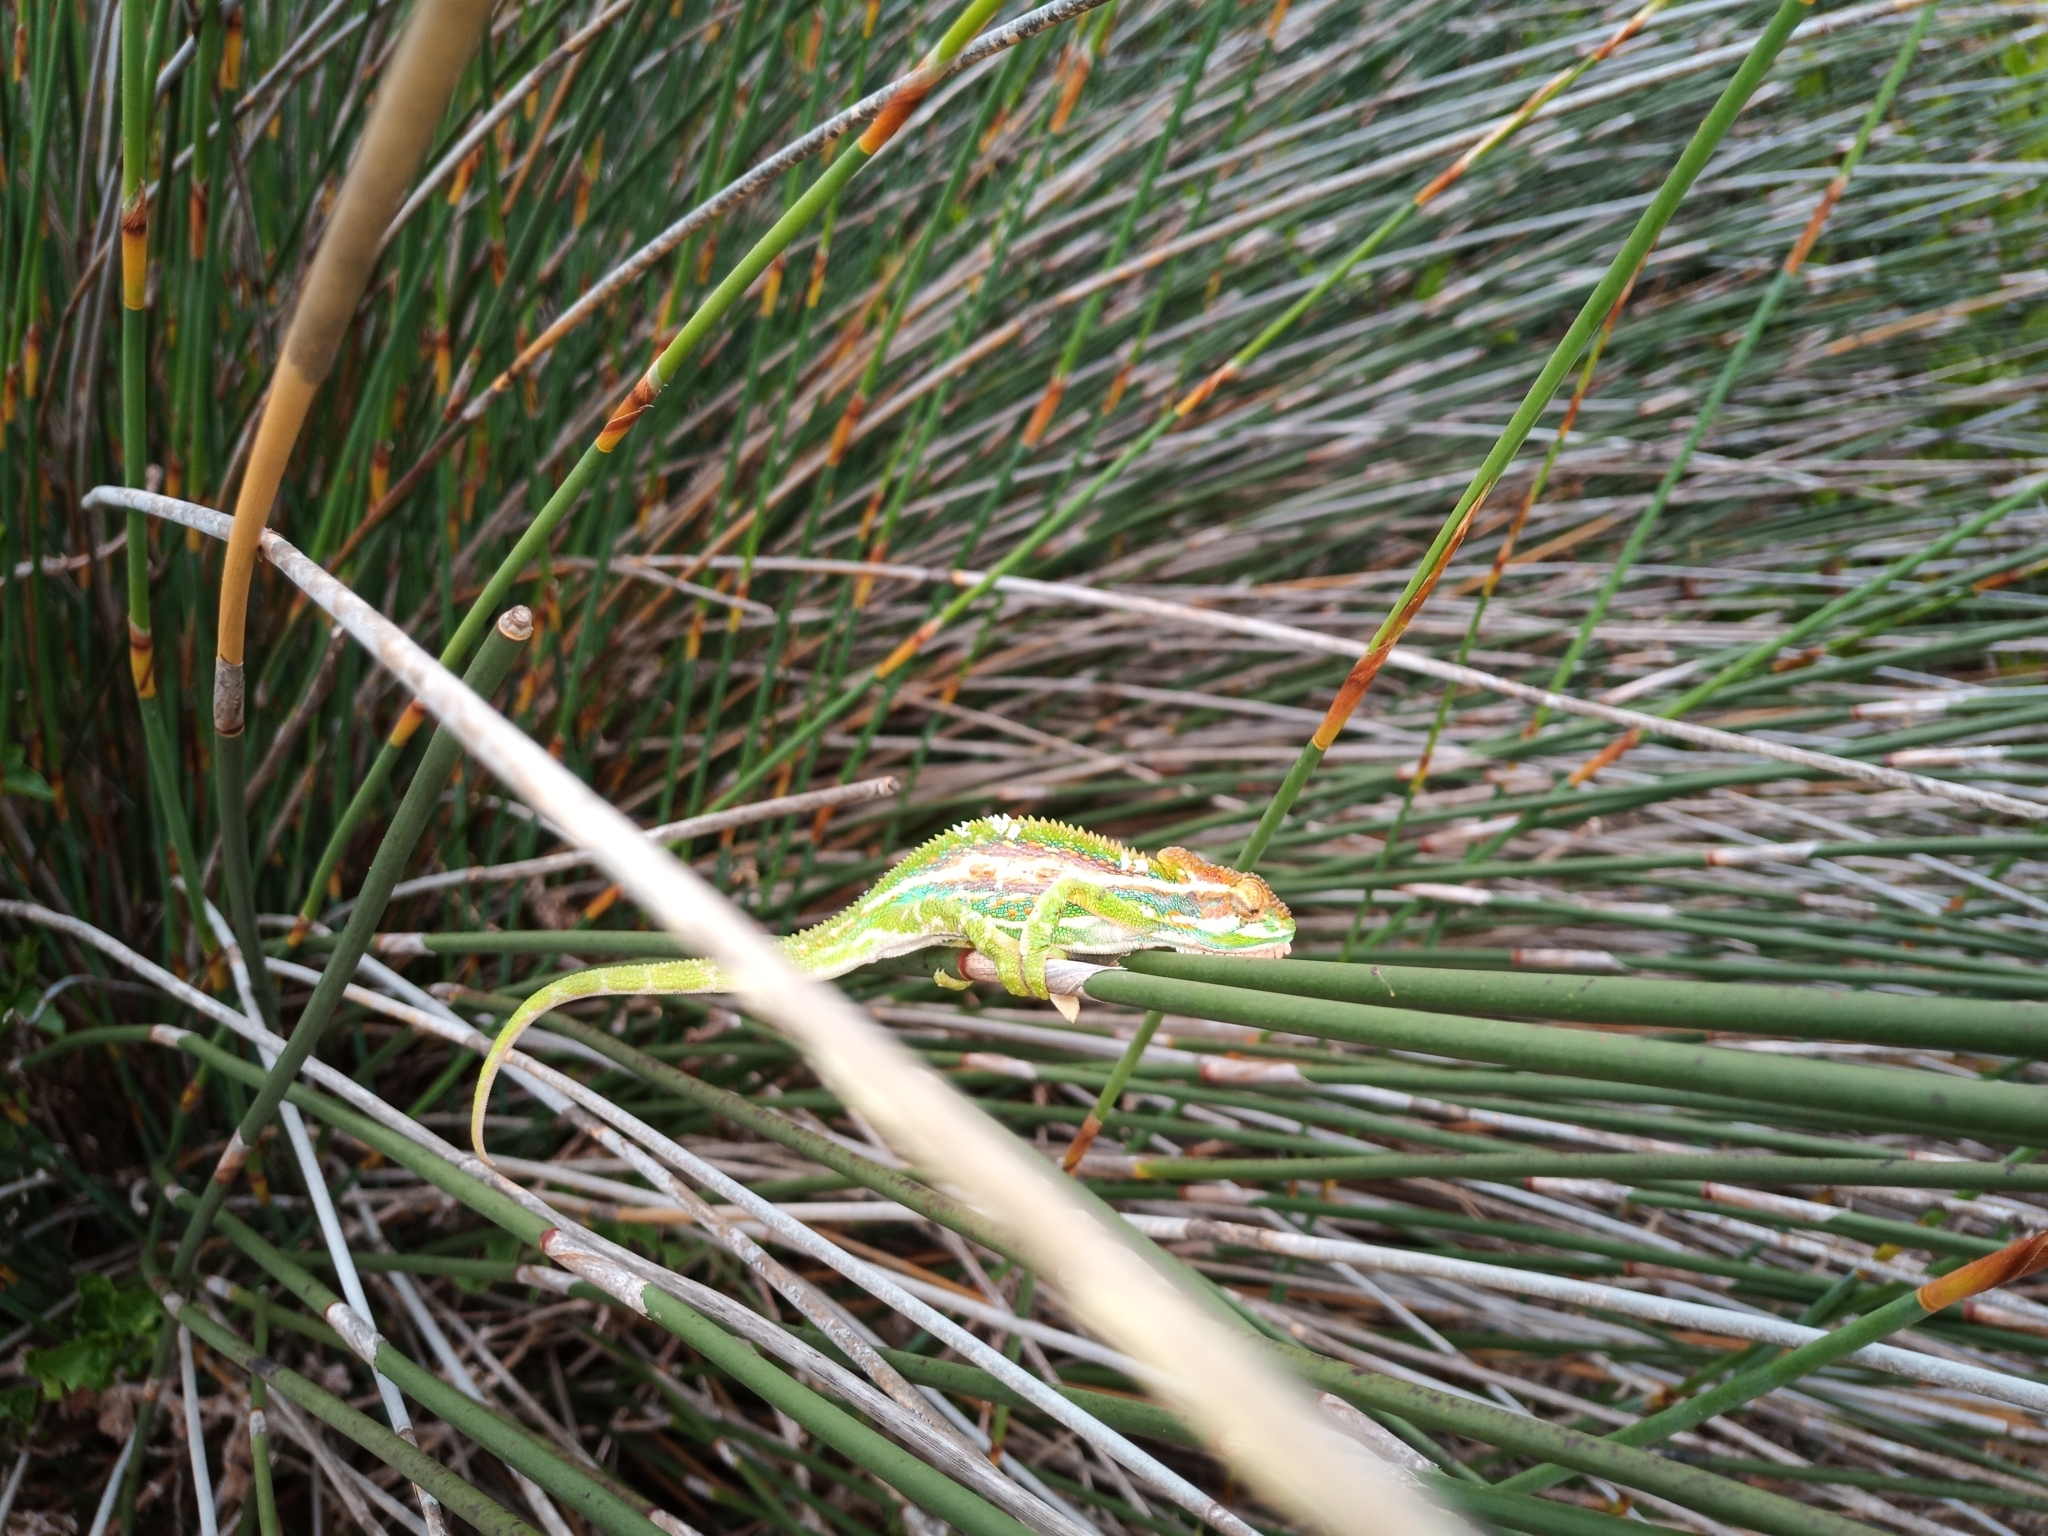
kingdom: Animalia
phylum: Chordata
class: Squamata
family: Chamaeleonidae
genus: Bradypodion
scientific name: Bradypodion pumilum
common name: Cape dwarf chameleon
